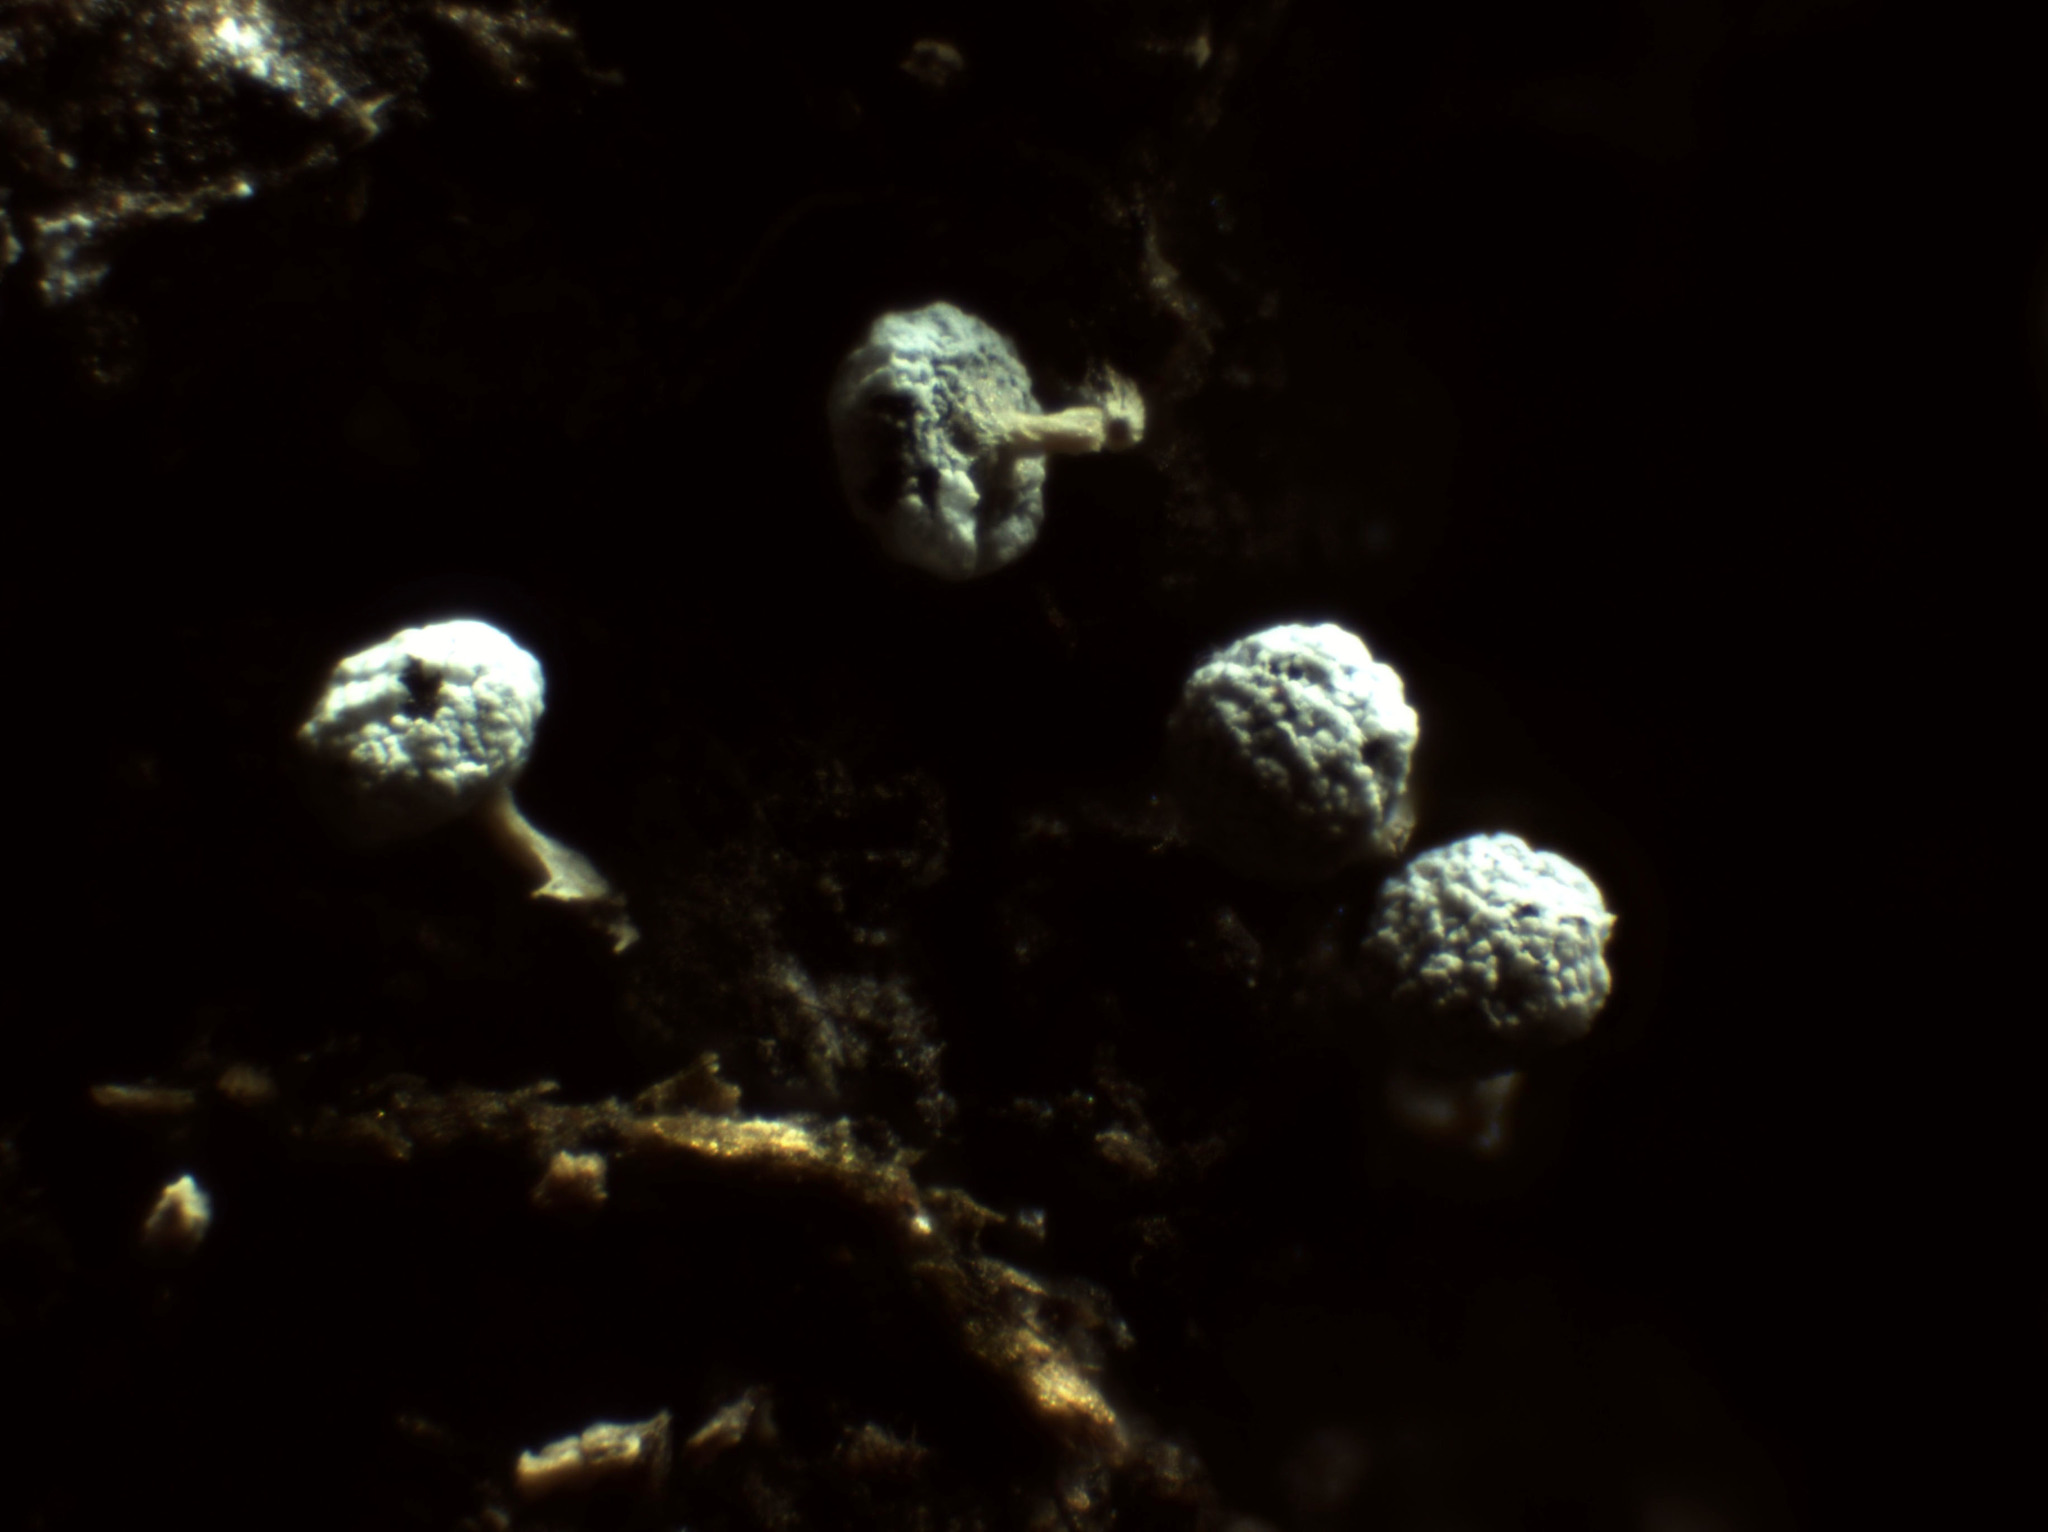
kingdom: Protozoa
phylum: Mycetozoa
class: Myxomycetes
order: Physarales
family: Physaraceae
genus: Physarum
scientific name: Physarum album
